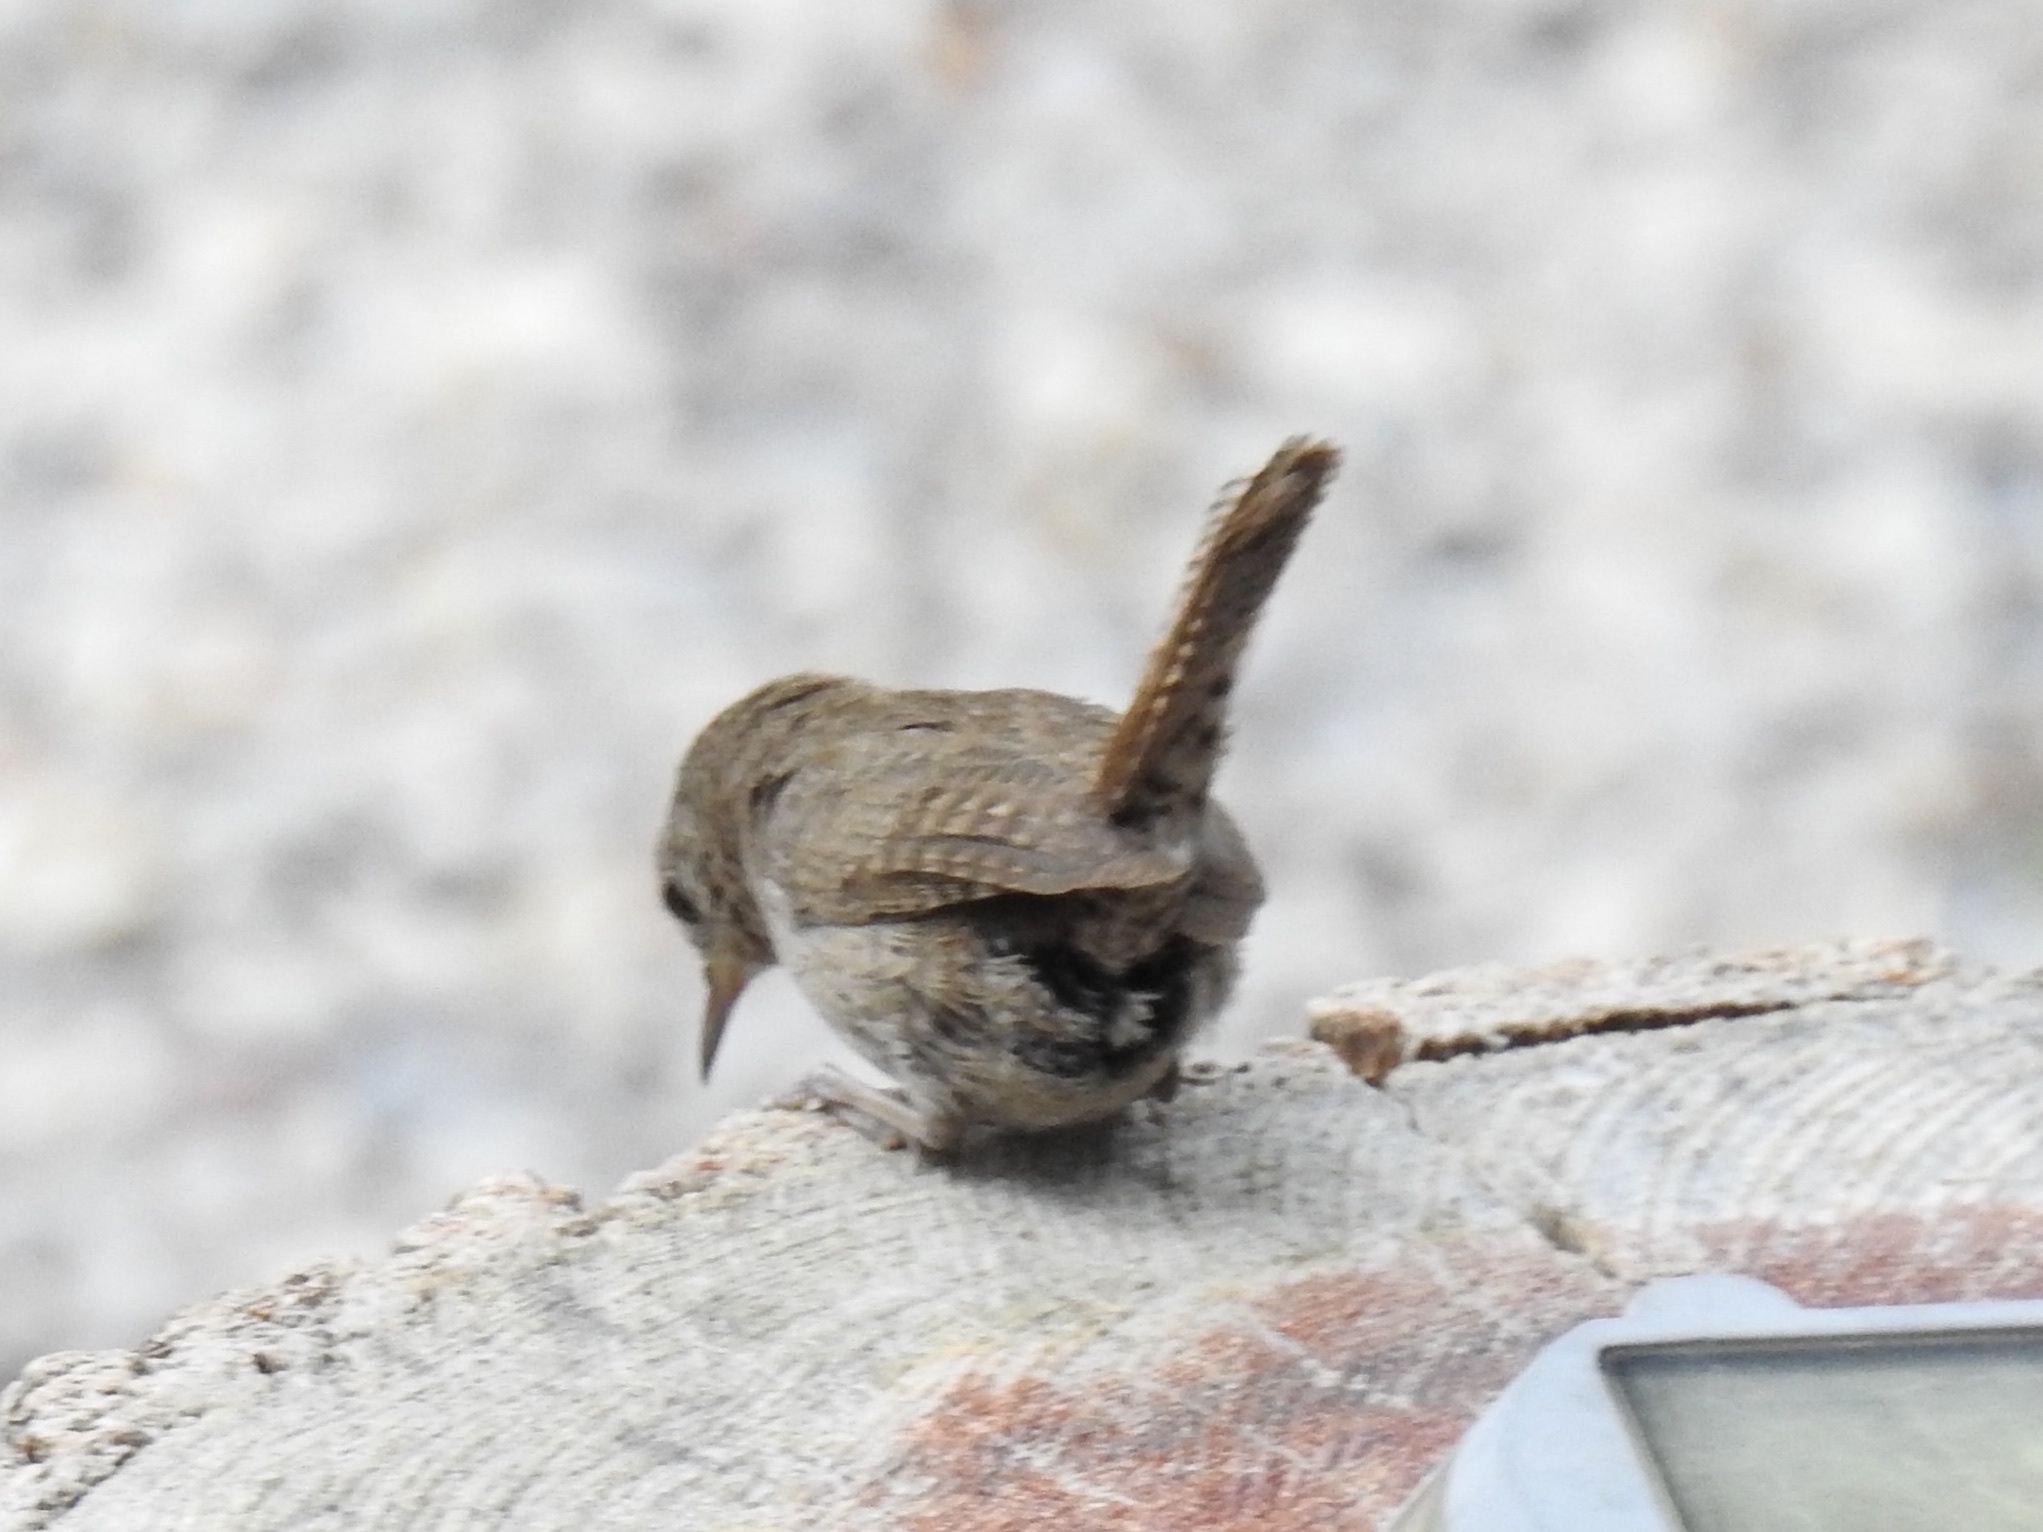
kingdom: Animalia
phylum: Chordata
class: Aves
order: Passeriformes
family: Troglodytidae
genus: Troglodytes
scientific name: Troglodytes aedon
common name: House wren
